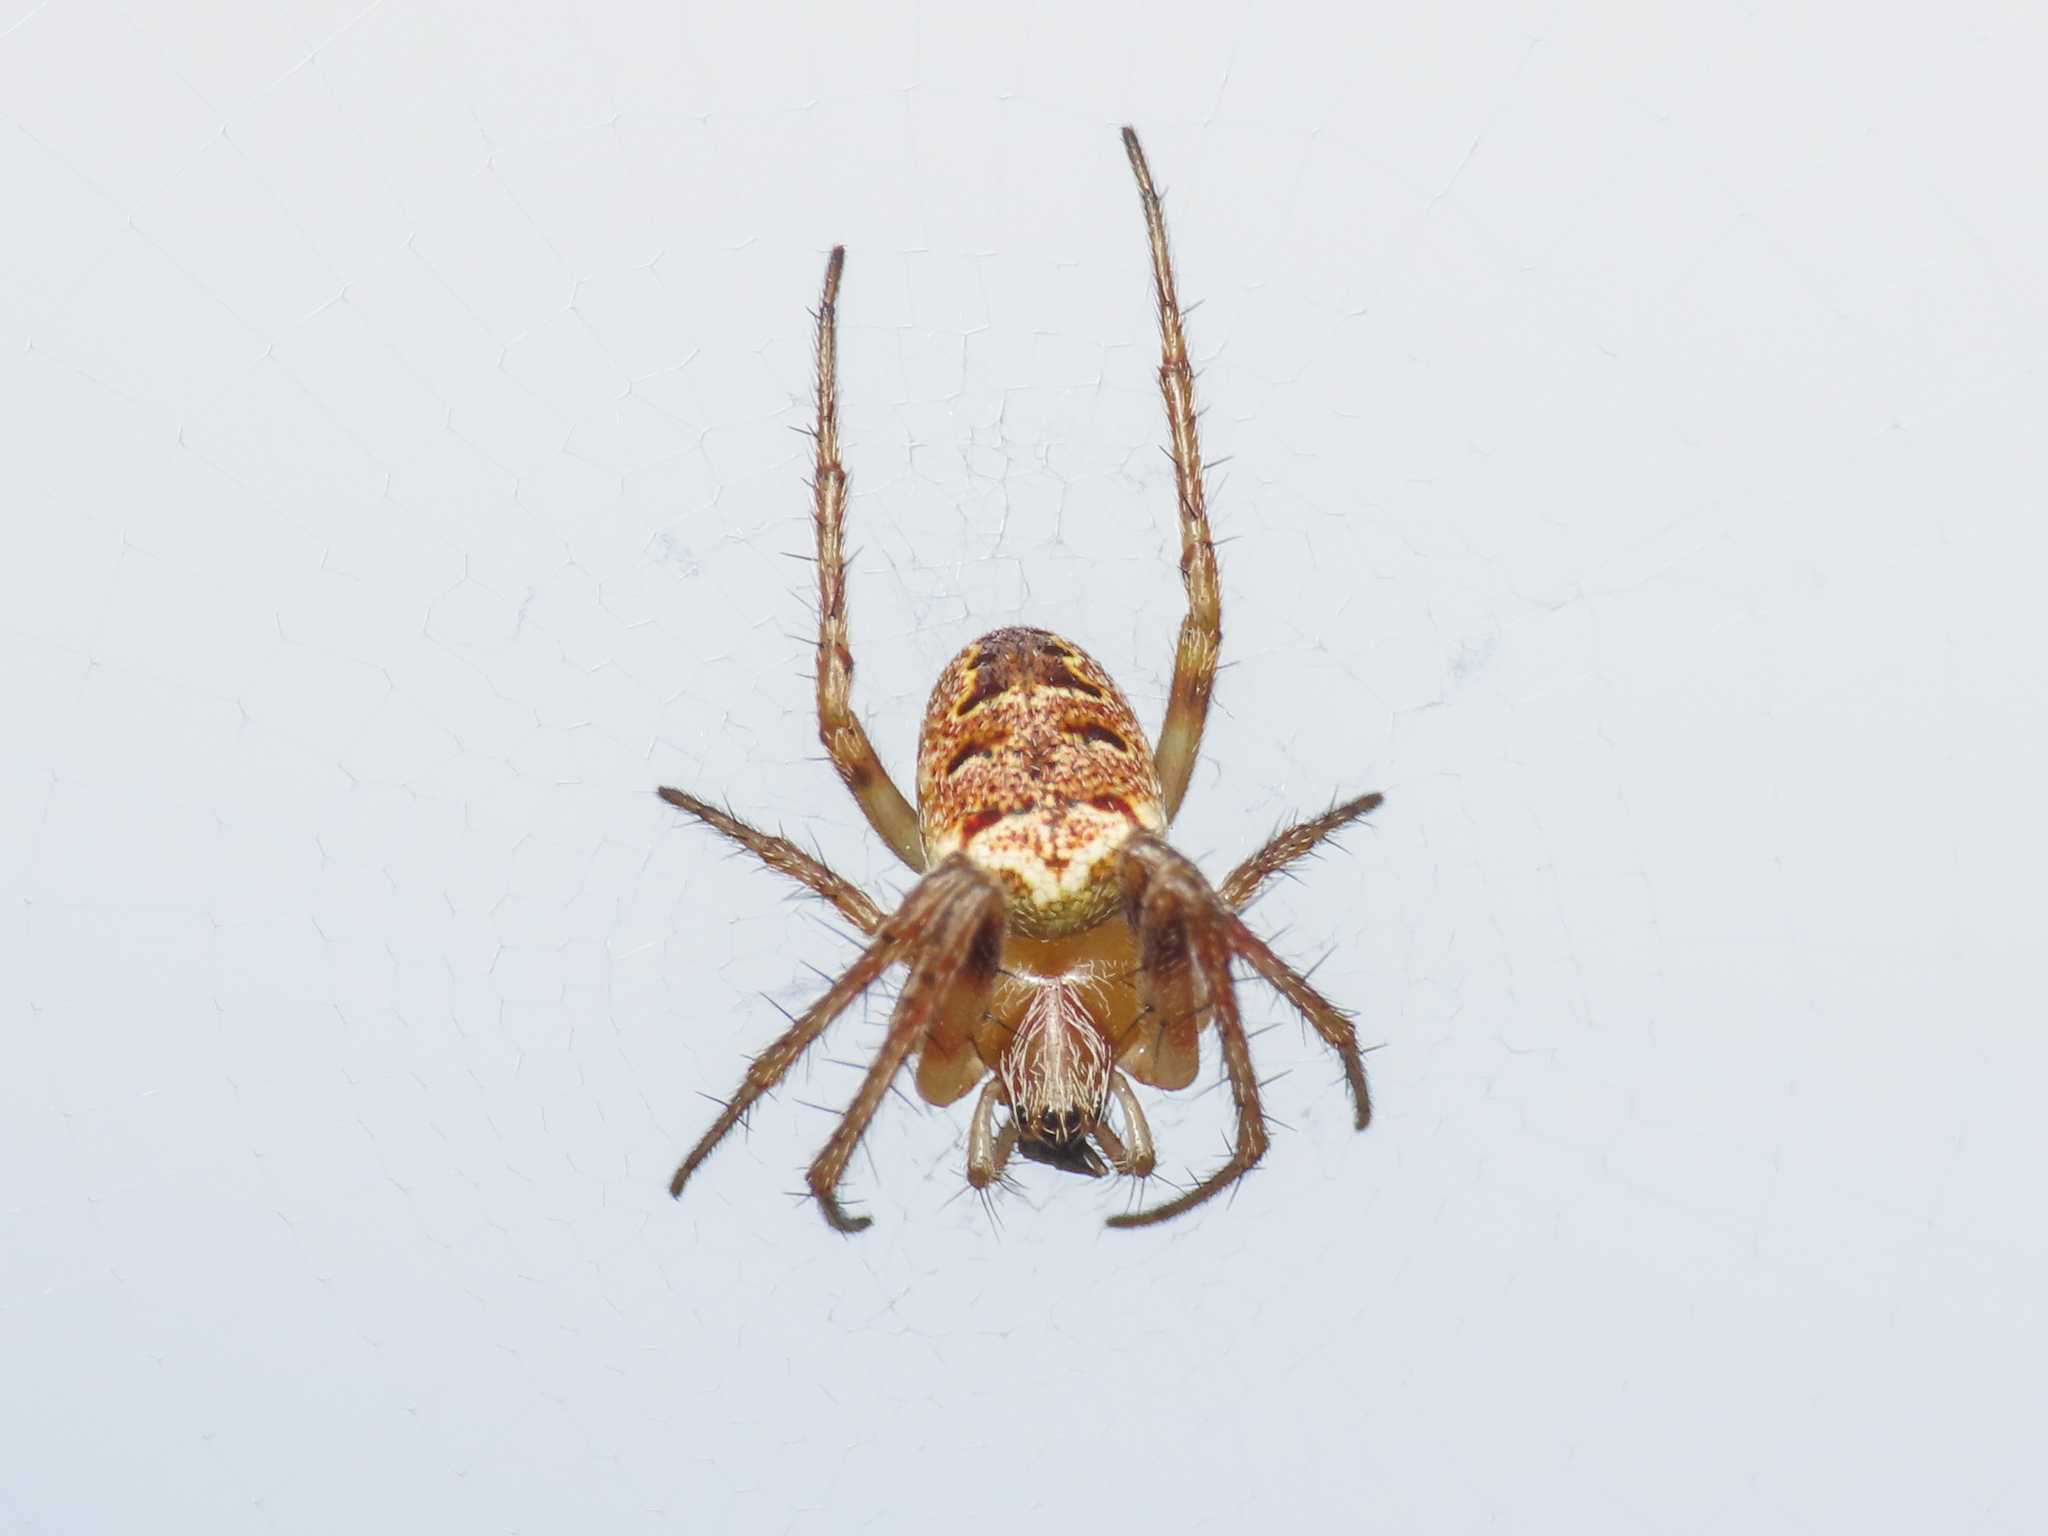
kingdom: Animalia
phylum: Arthropoda
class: Arachnida
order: Araneae
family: Araneidae
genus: Zilla
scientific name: Zilla diodia
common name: Zilla diodia
